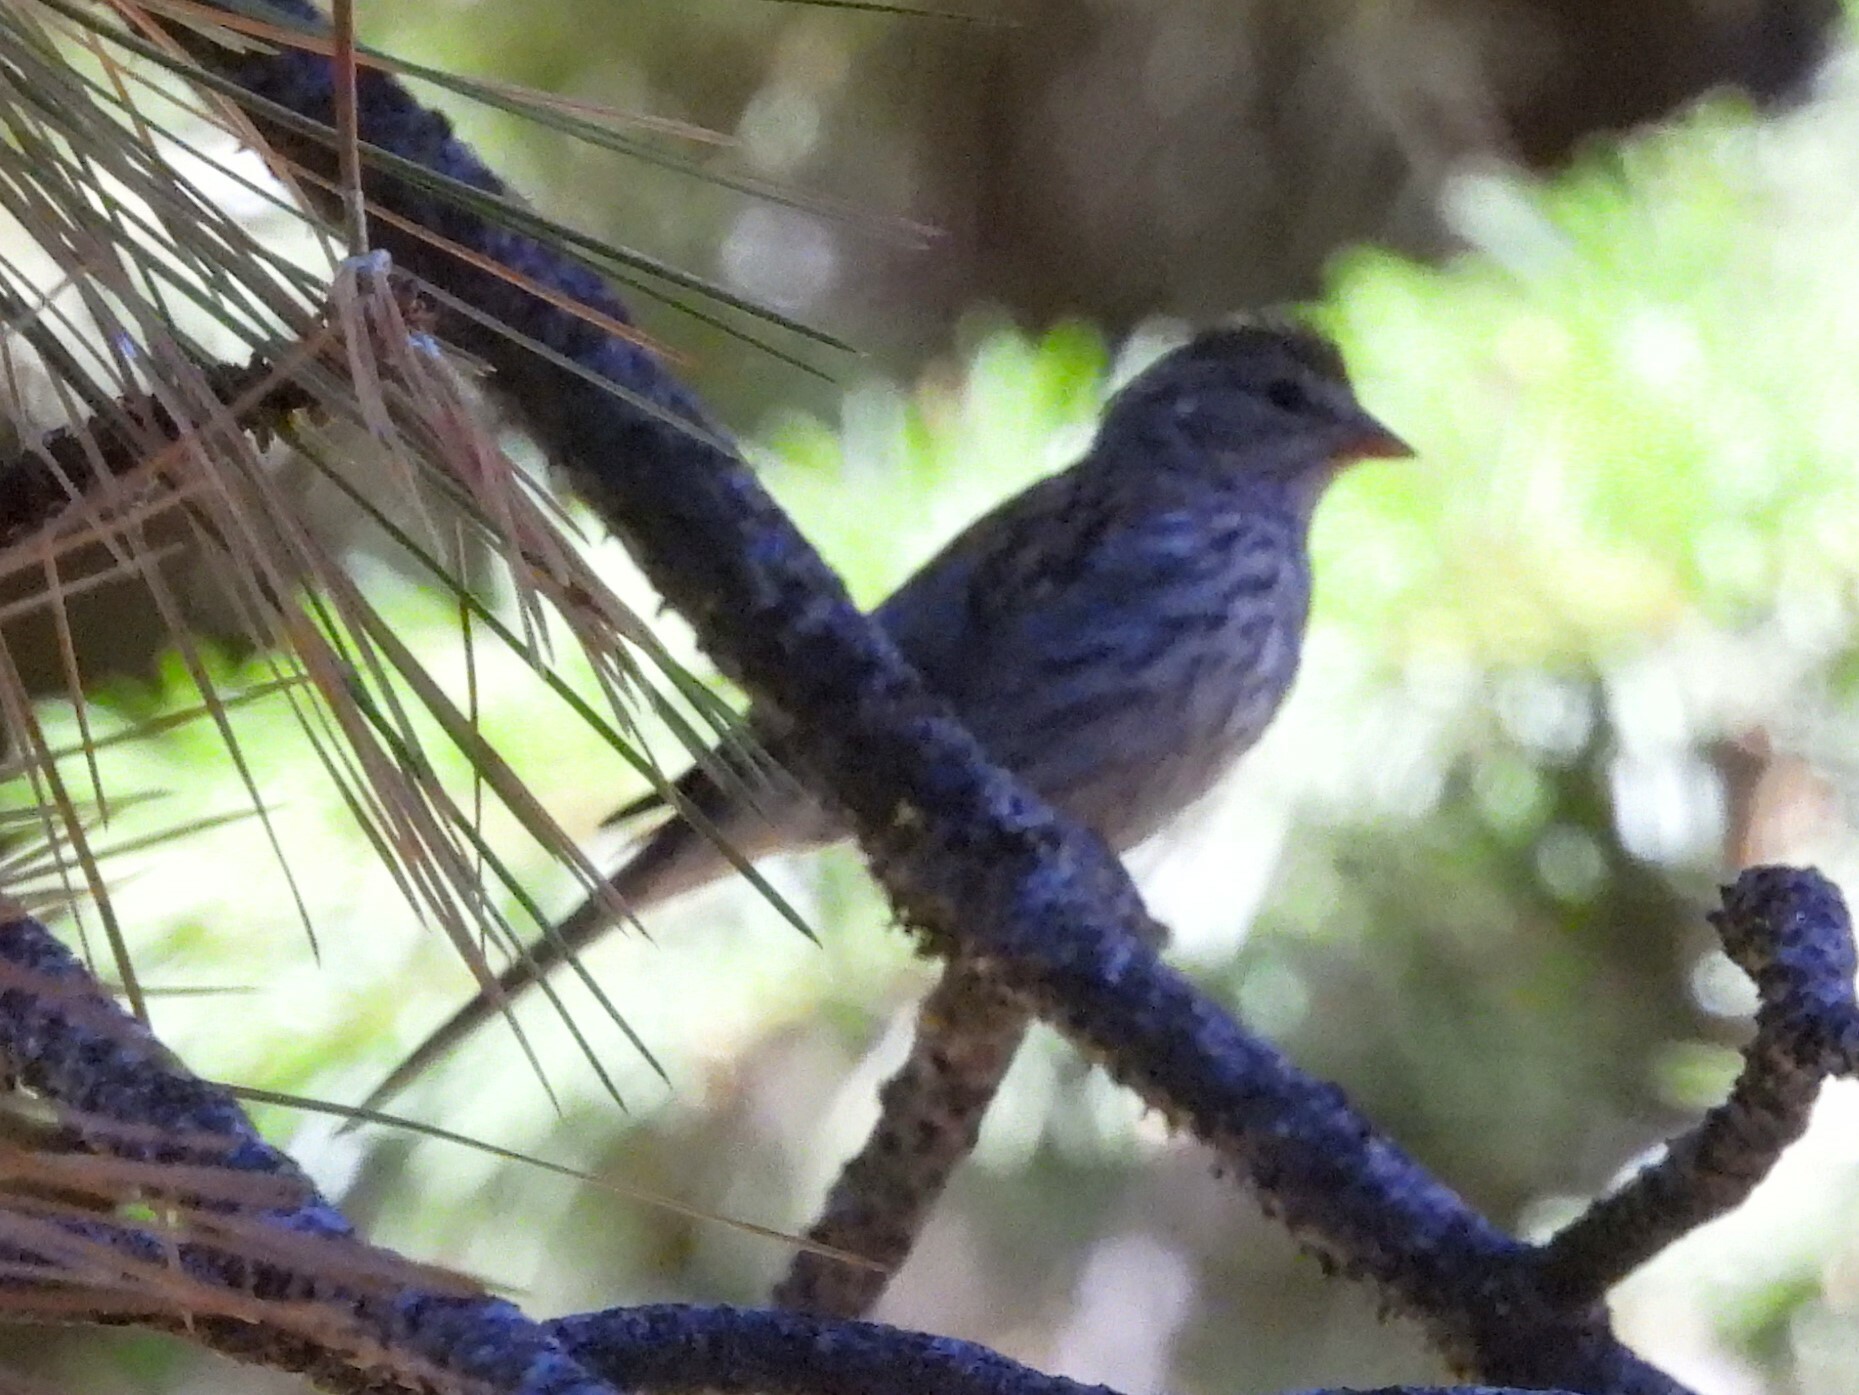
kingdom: Animalia
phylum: Chordata
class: Aves
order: Passeriformes
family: Passerellidae
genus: Spizella
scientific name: Spizella passerina
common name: Chipping sparrow
